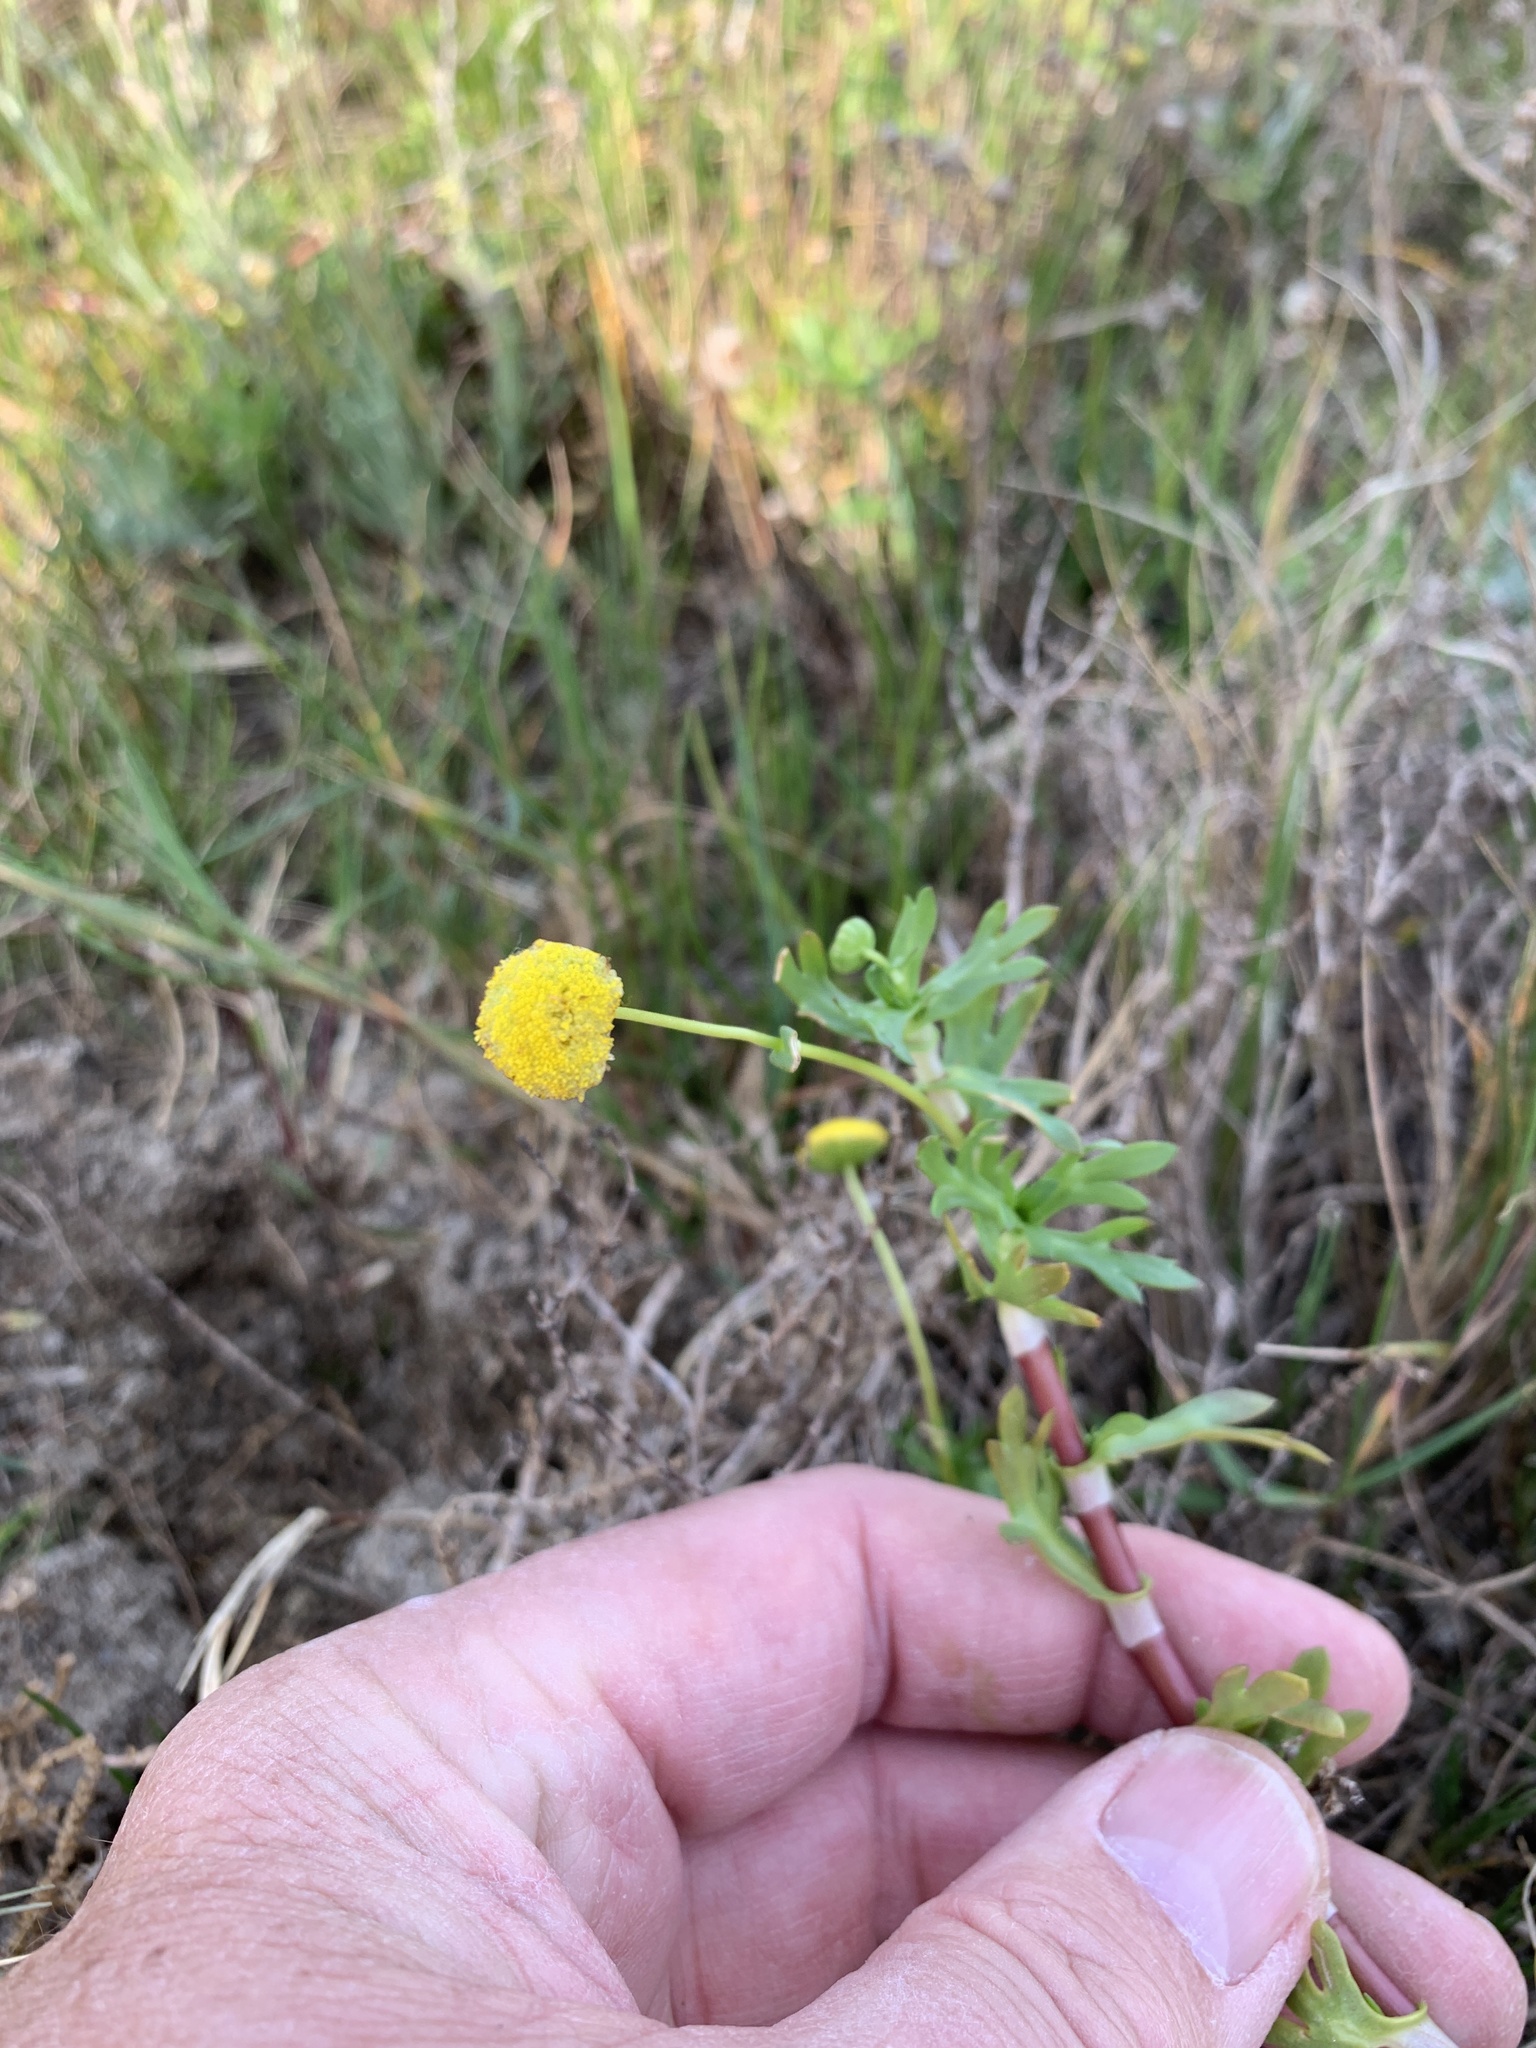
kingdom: Plantae
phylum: Tracheophyta
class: Magnoliopsida
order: Asterales
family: Asteraceae
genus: Cotula
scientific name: Cotula coronopifolia
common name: Buttonweed
